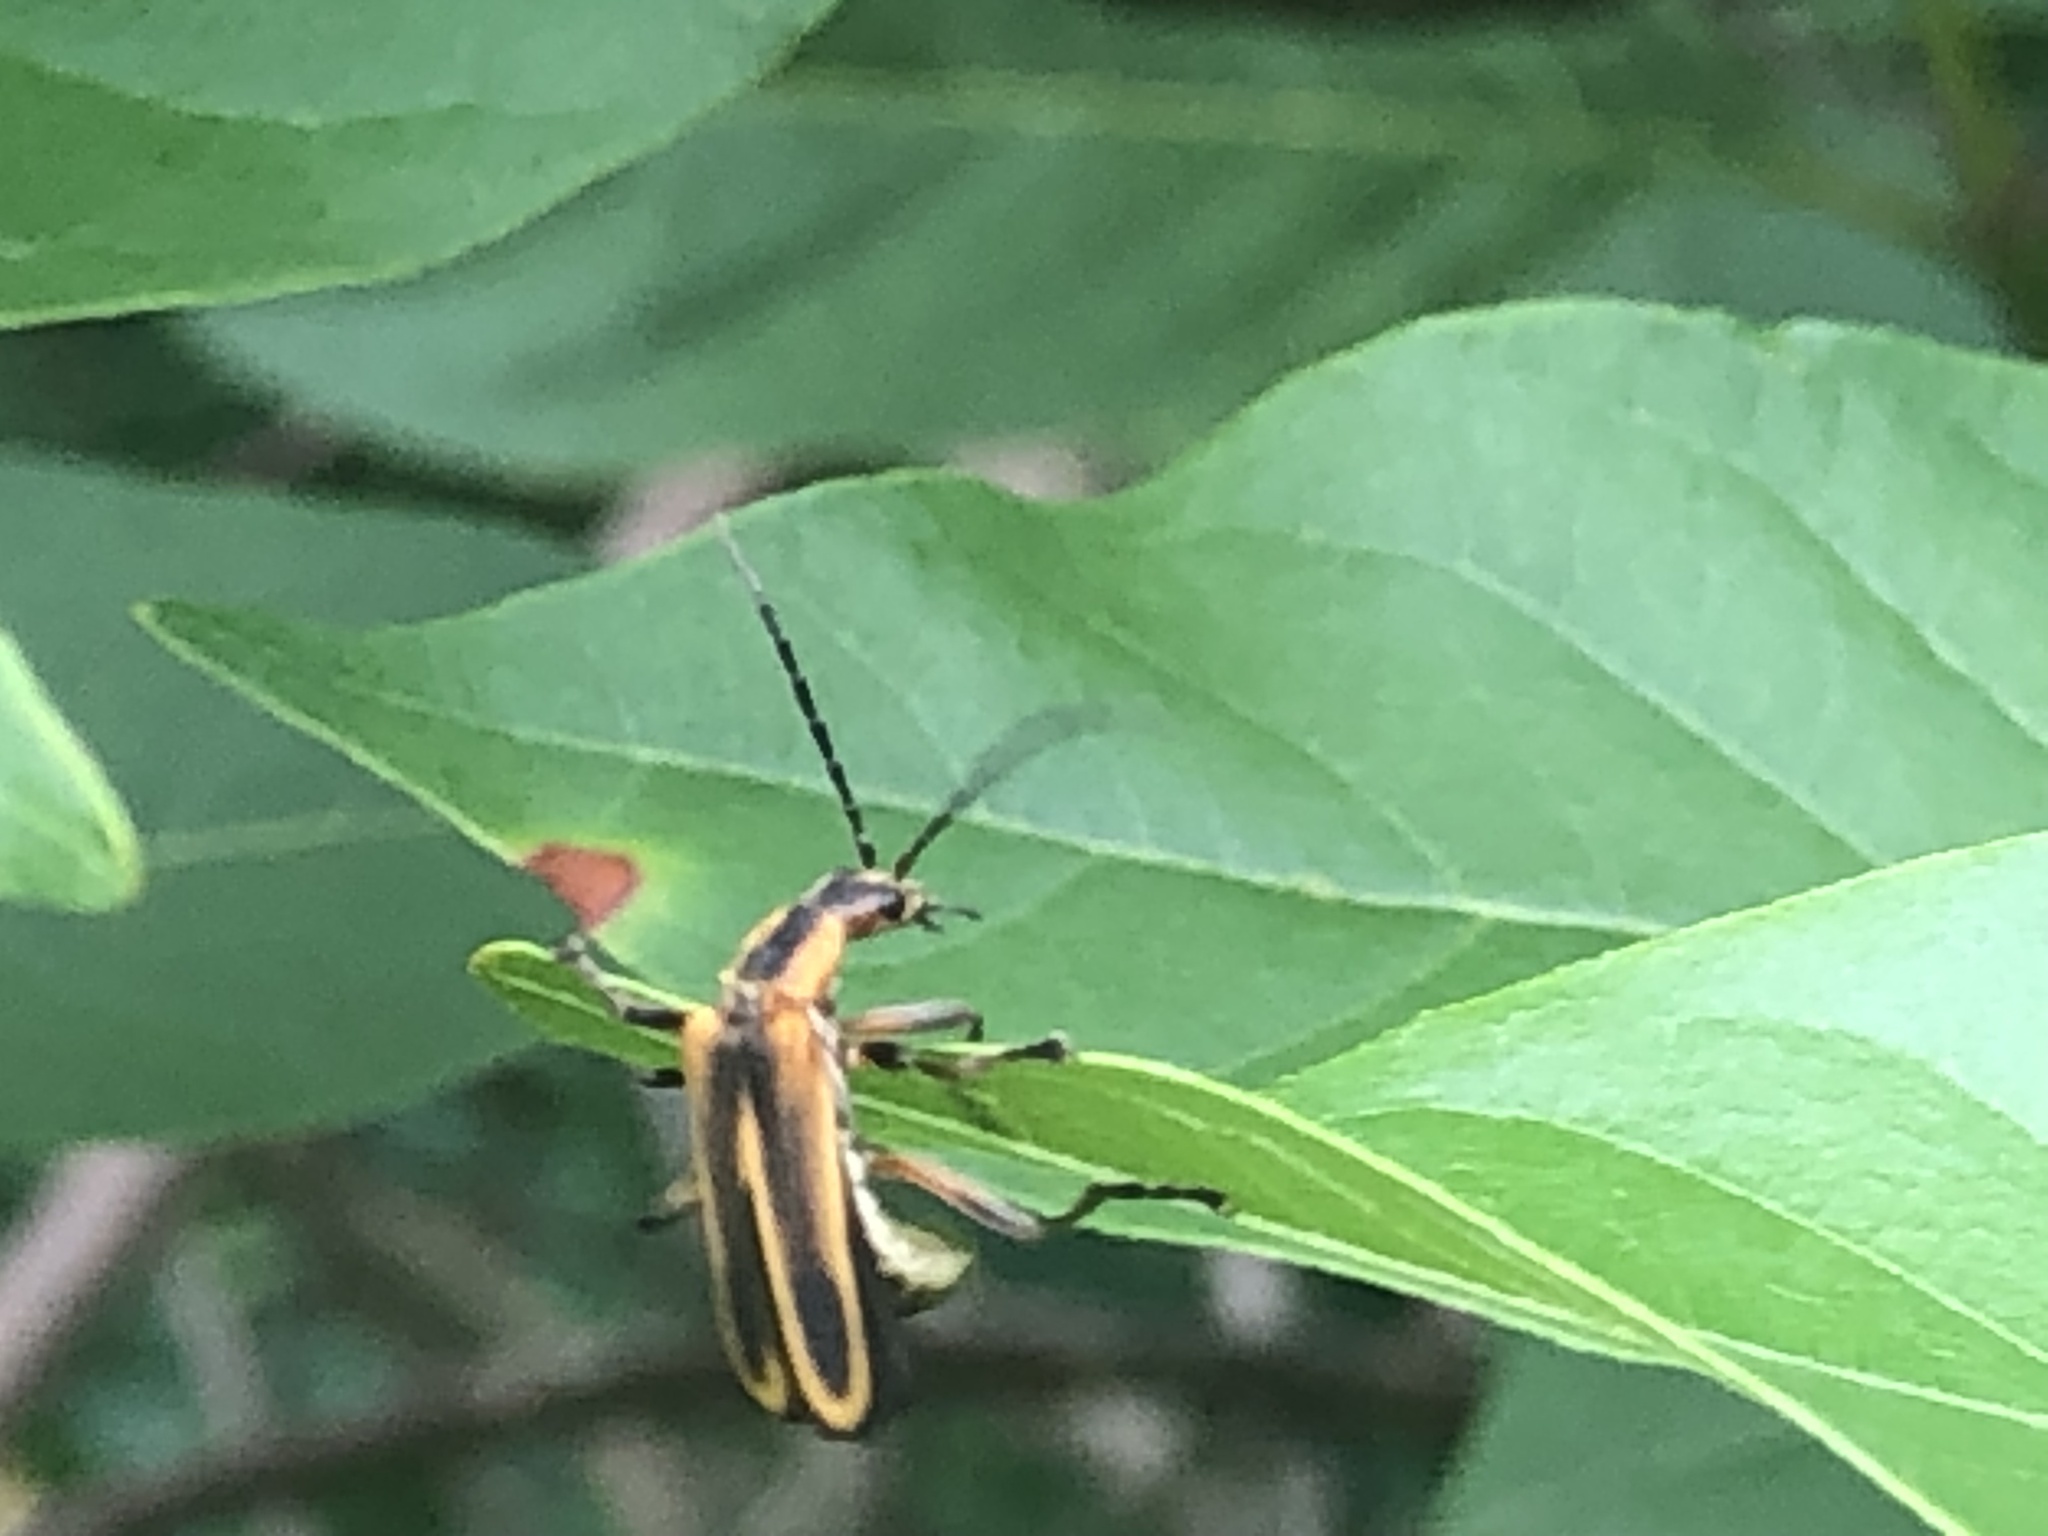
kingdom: Animalia
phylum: Arthropoda
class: Insecta
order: Coleoptera
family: Cantharidae
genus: Chauliognathus
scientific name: Chauliognathus marginatus
